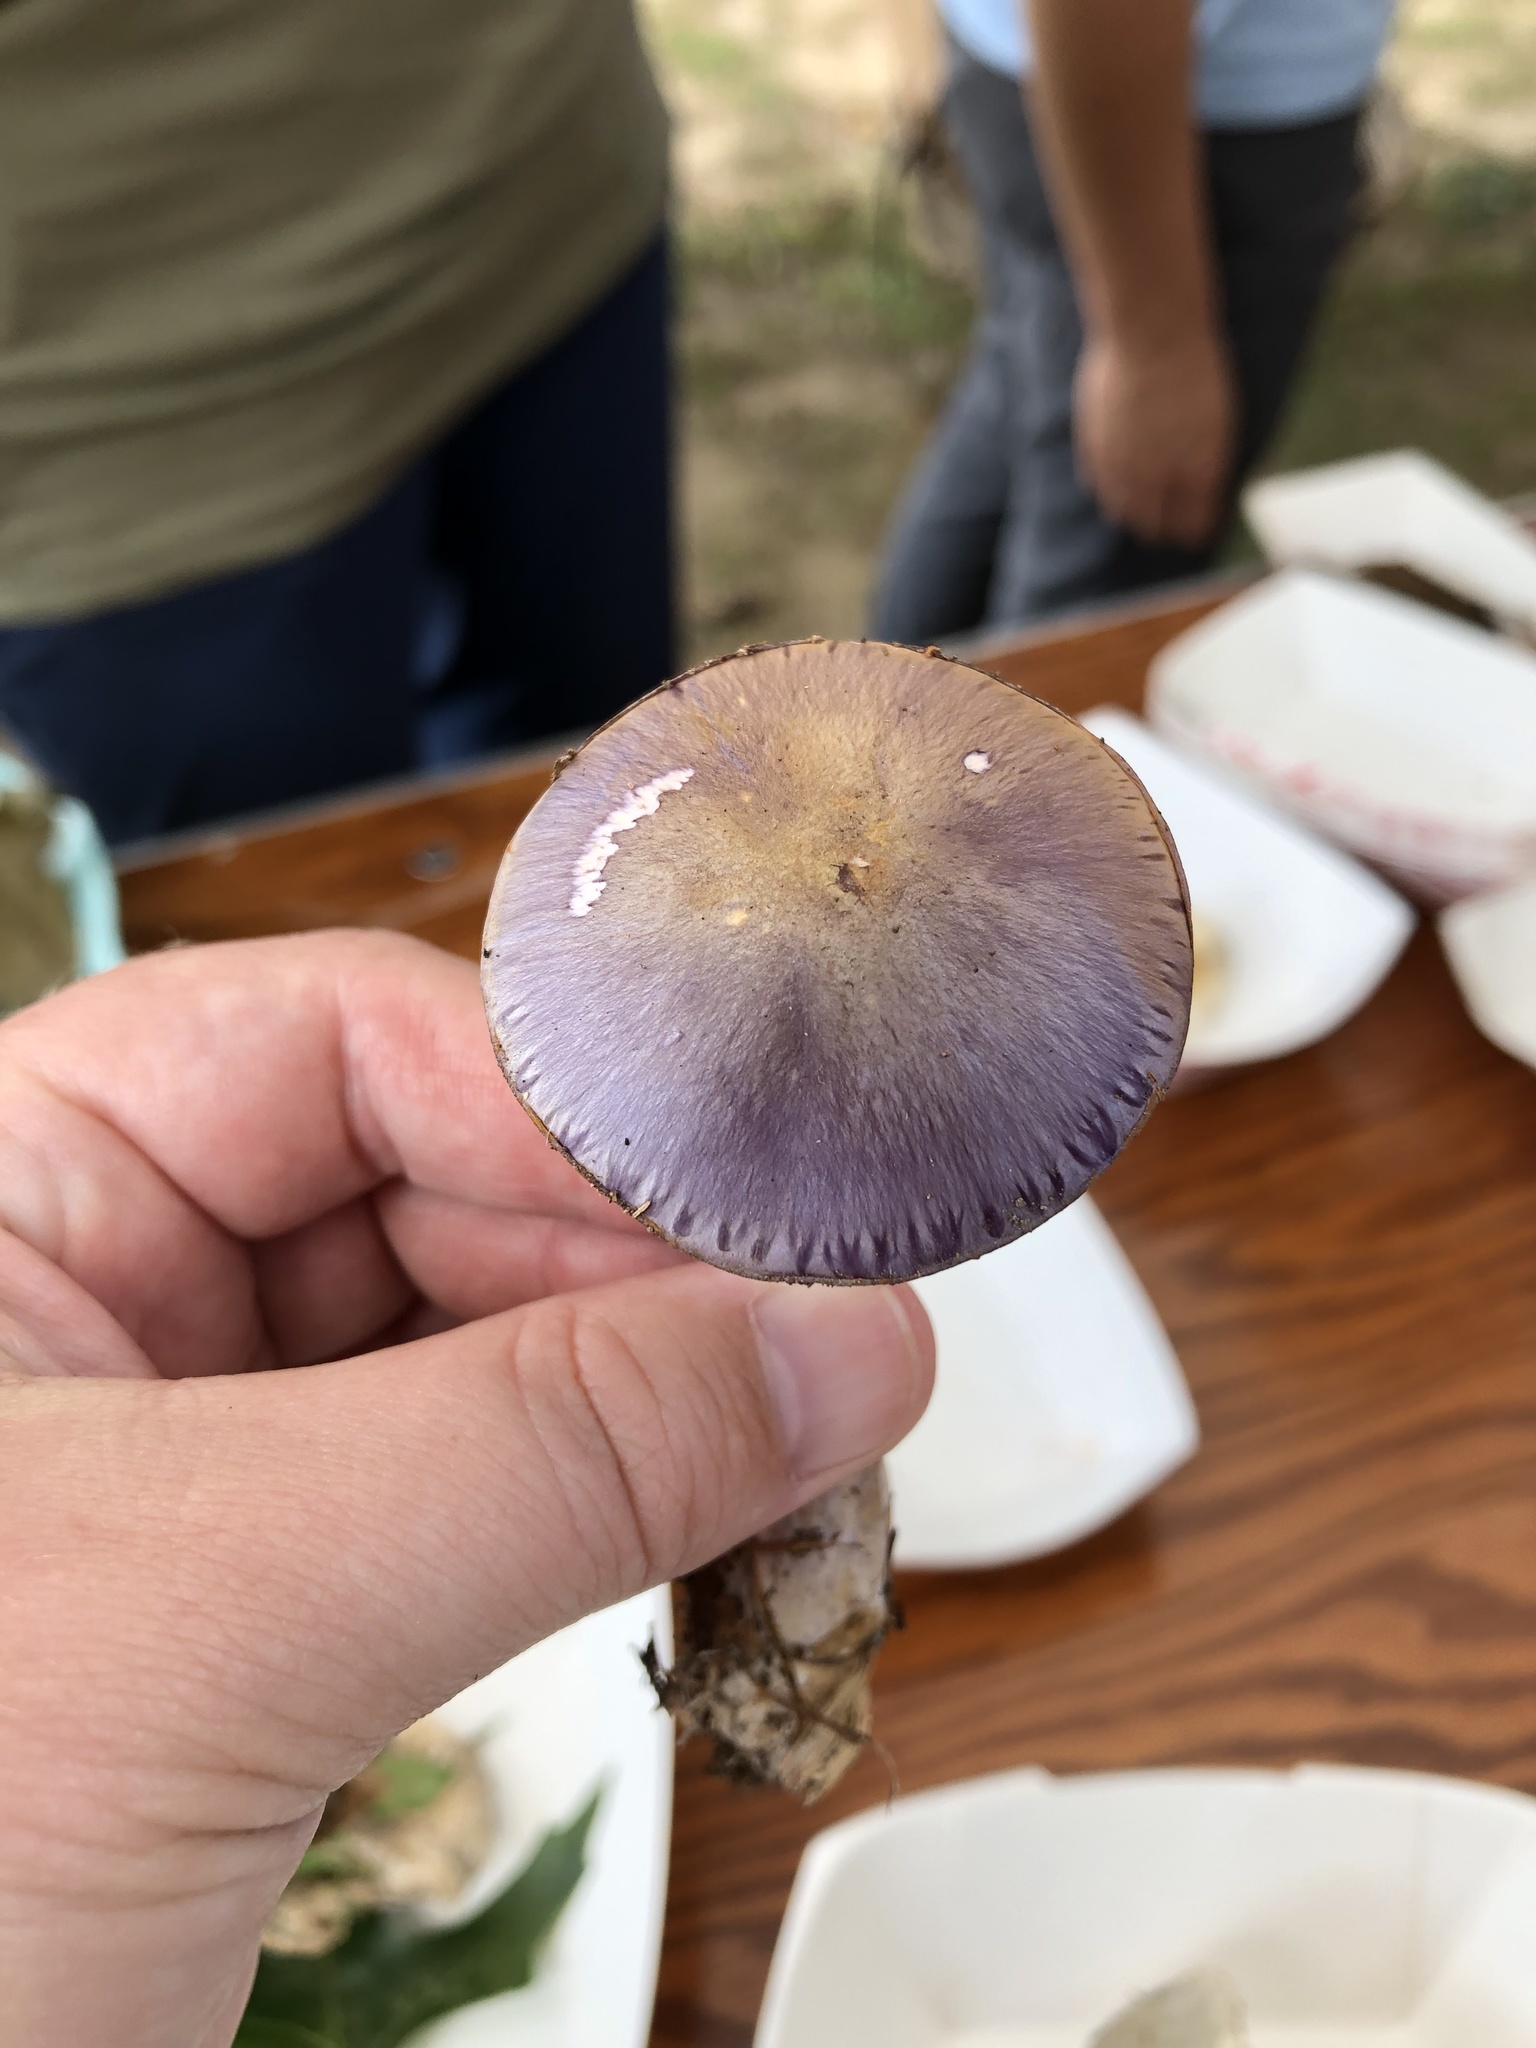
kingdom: Fungi
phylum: Basidiomycota
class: Agaricomycetes
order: Agaricales
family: Cortinariaceae
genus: Cortinarius
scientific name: Cortinarius iodes
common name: Viscid violet cort
